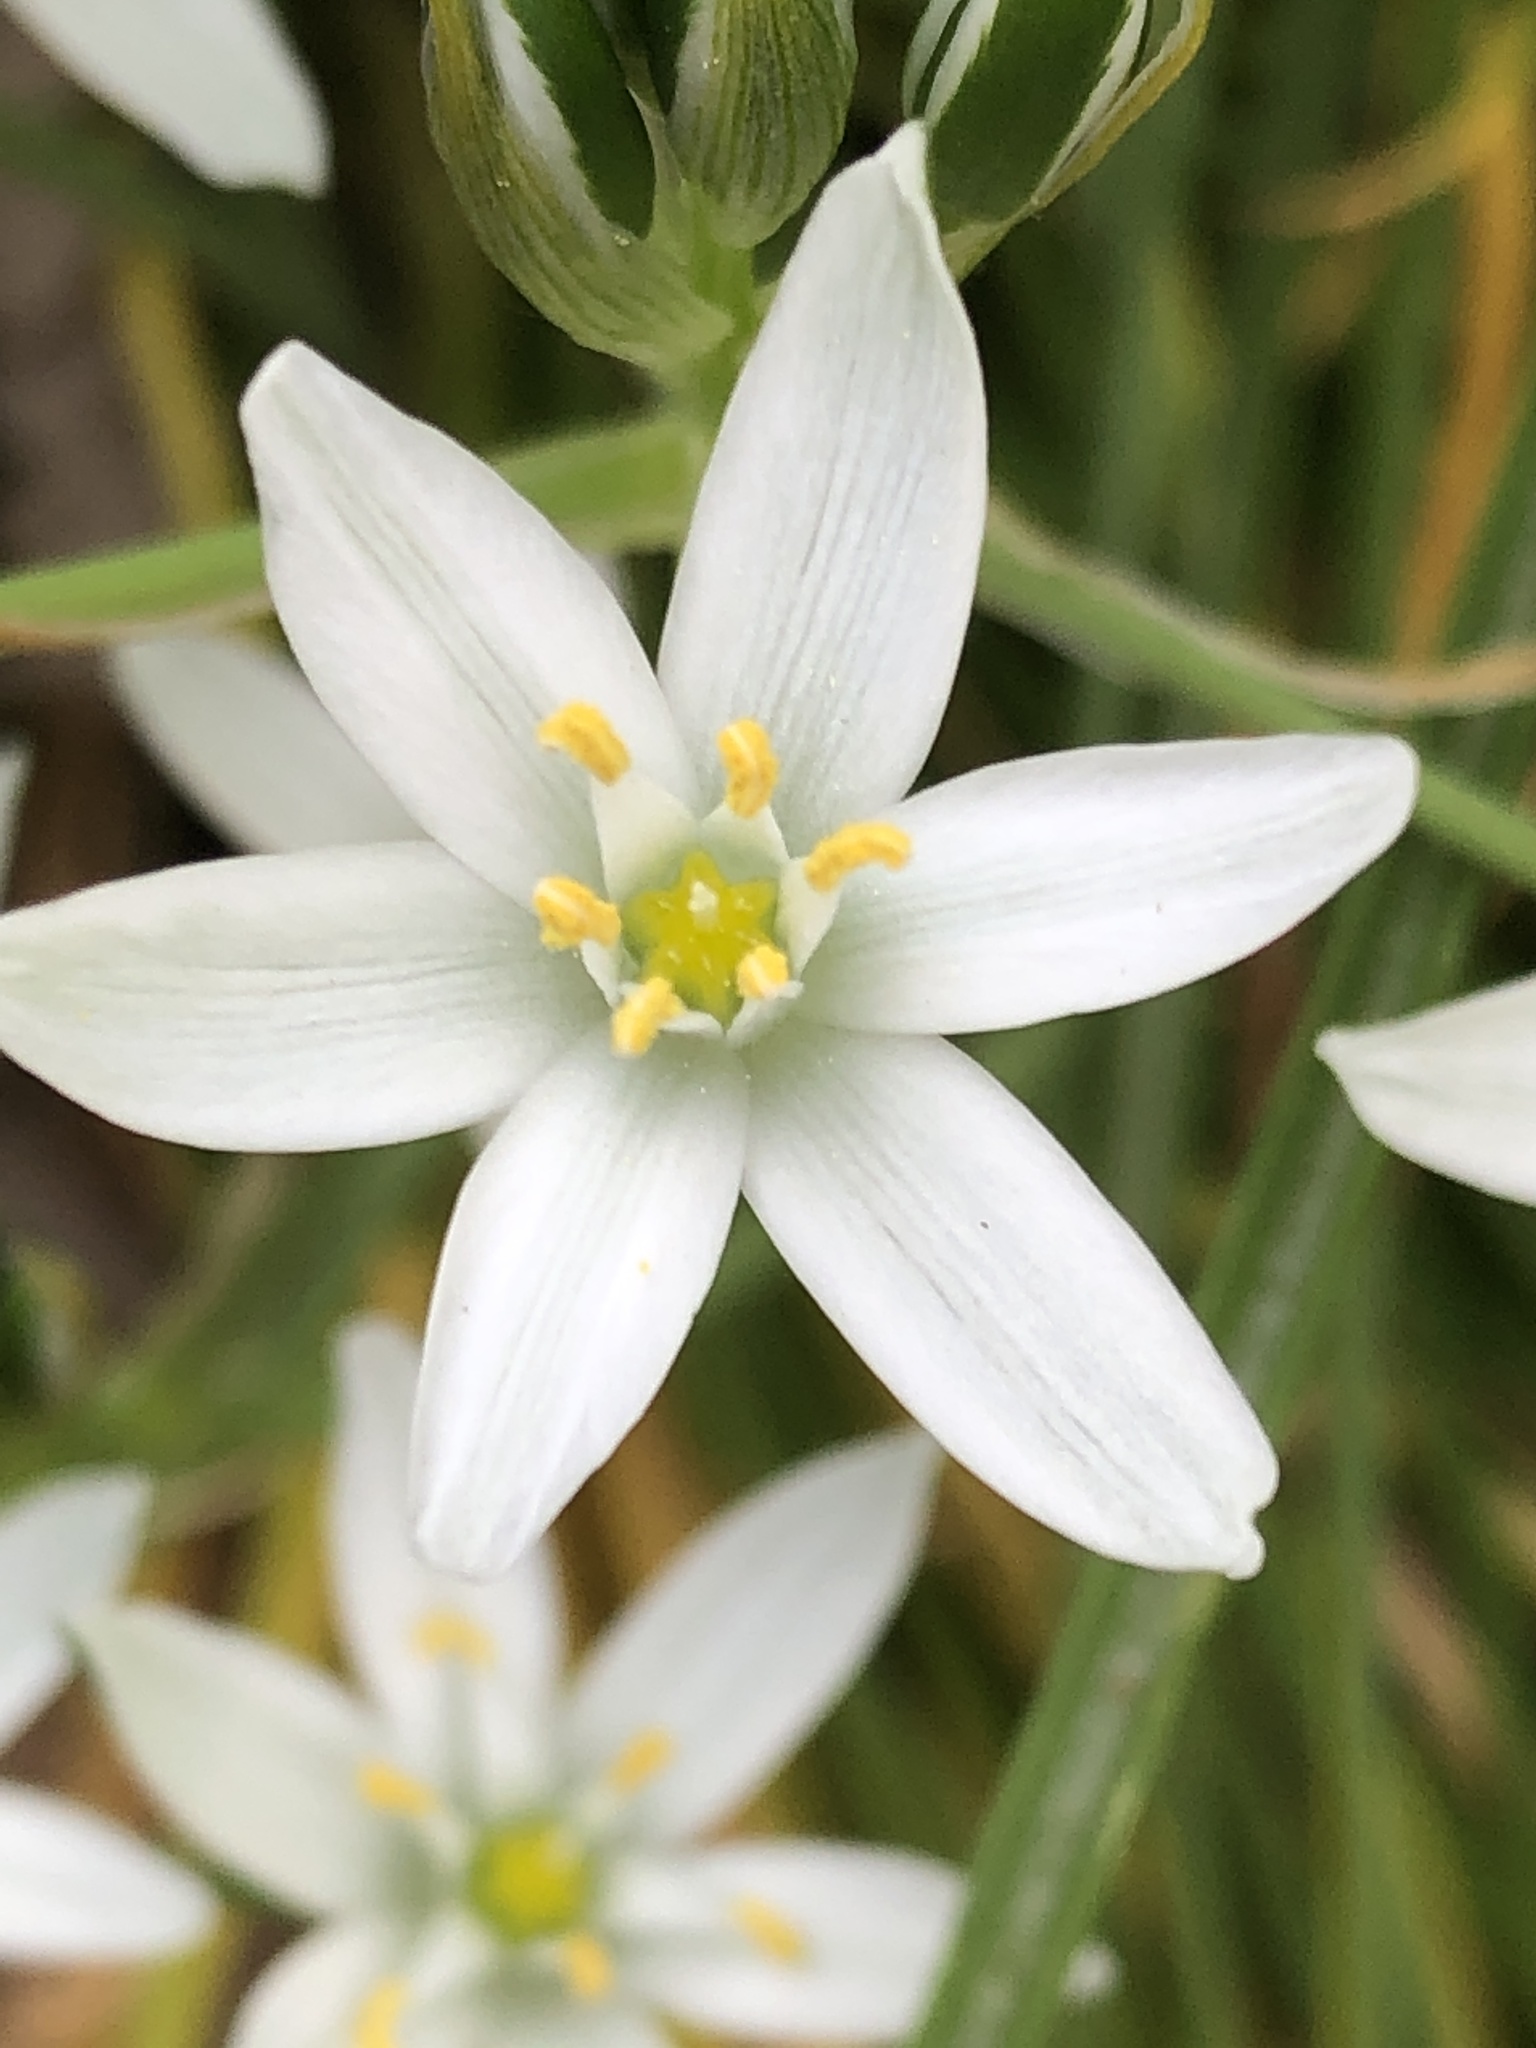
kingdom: Plantae
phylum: Tracheophyta
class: Liliopsida
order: Asparagales
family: Asparagaceae
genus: Ornithogalum
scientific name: Ornithogalum umbellatum
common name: Garden star-of-bethlehem
